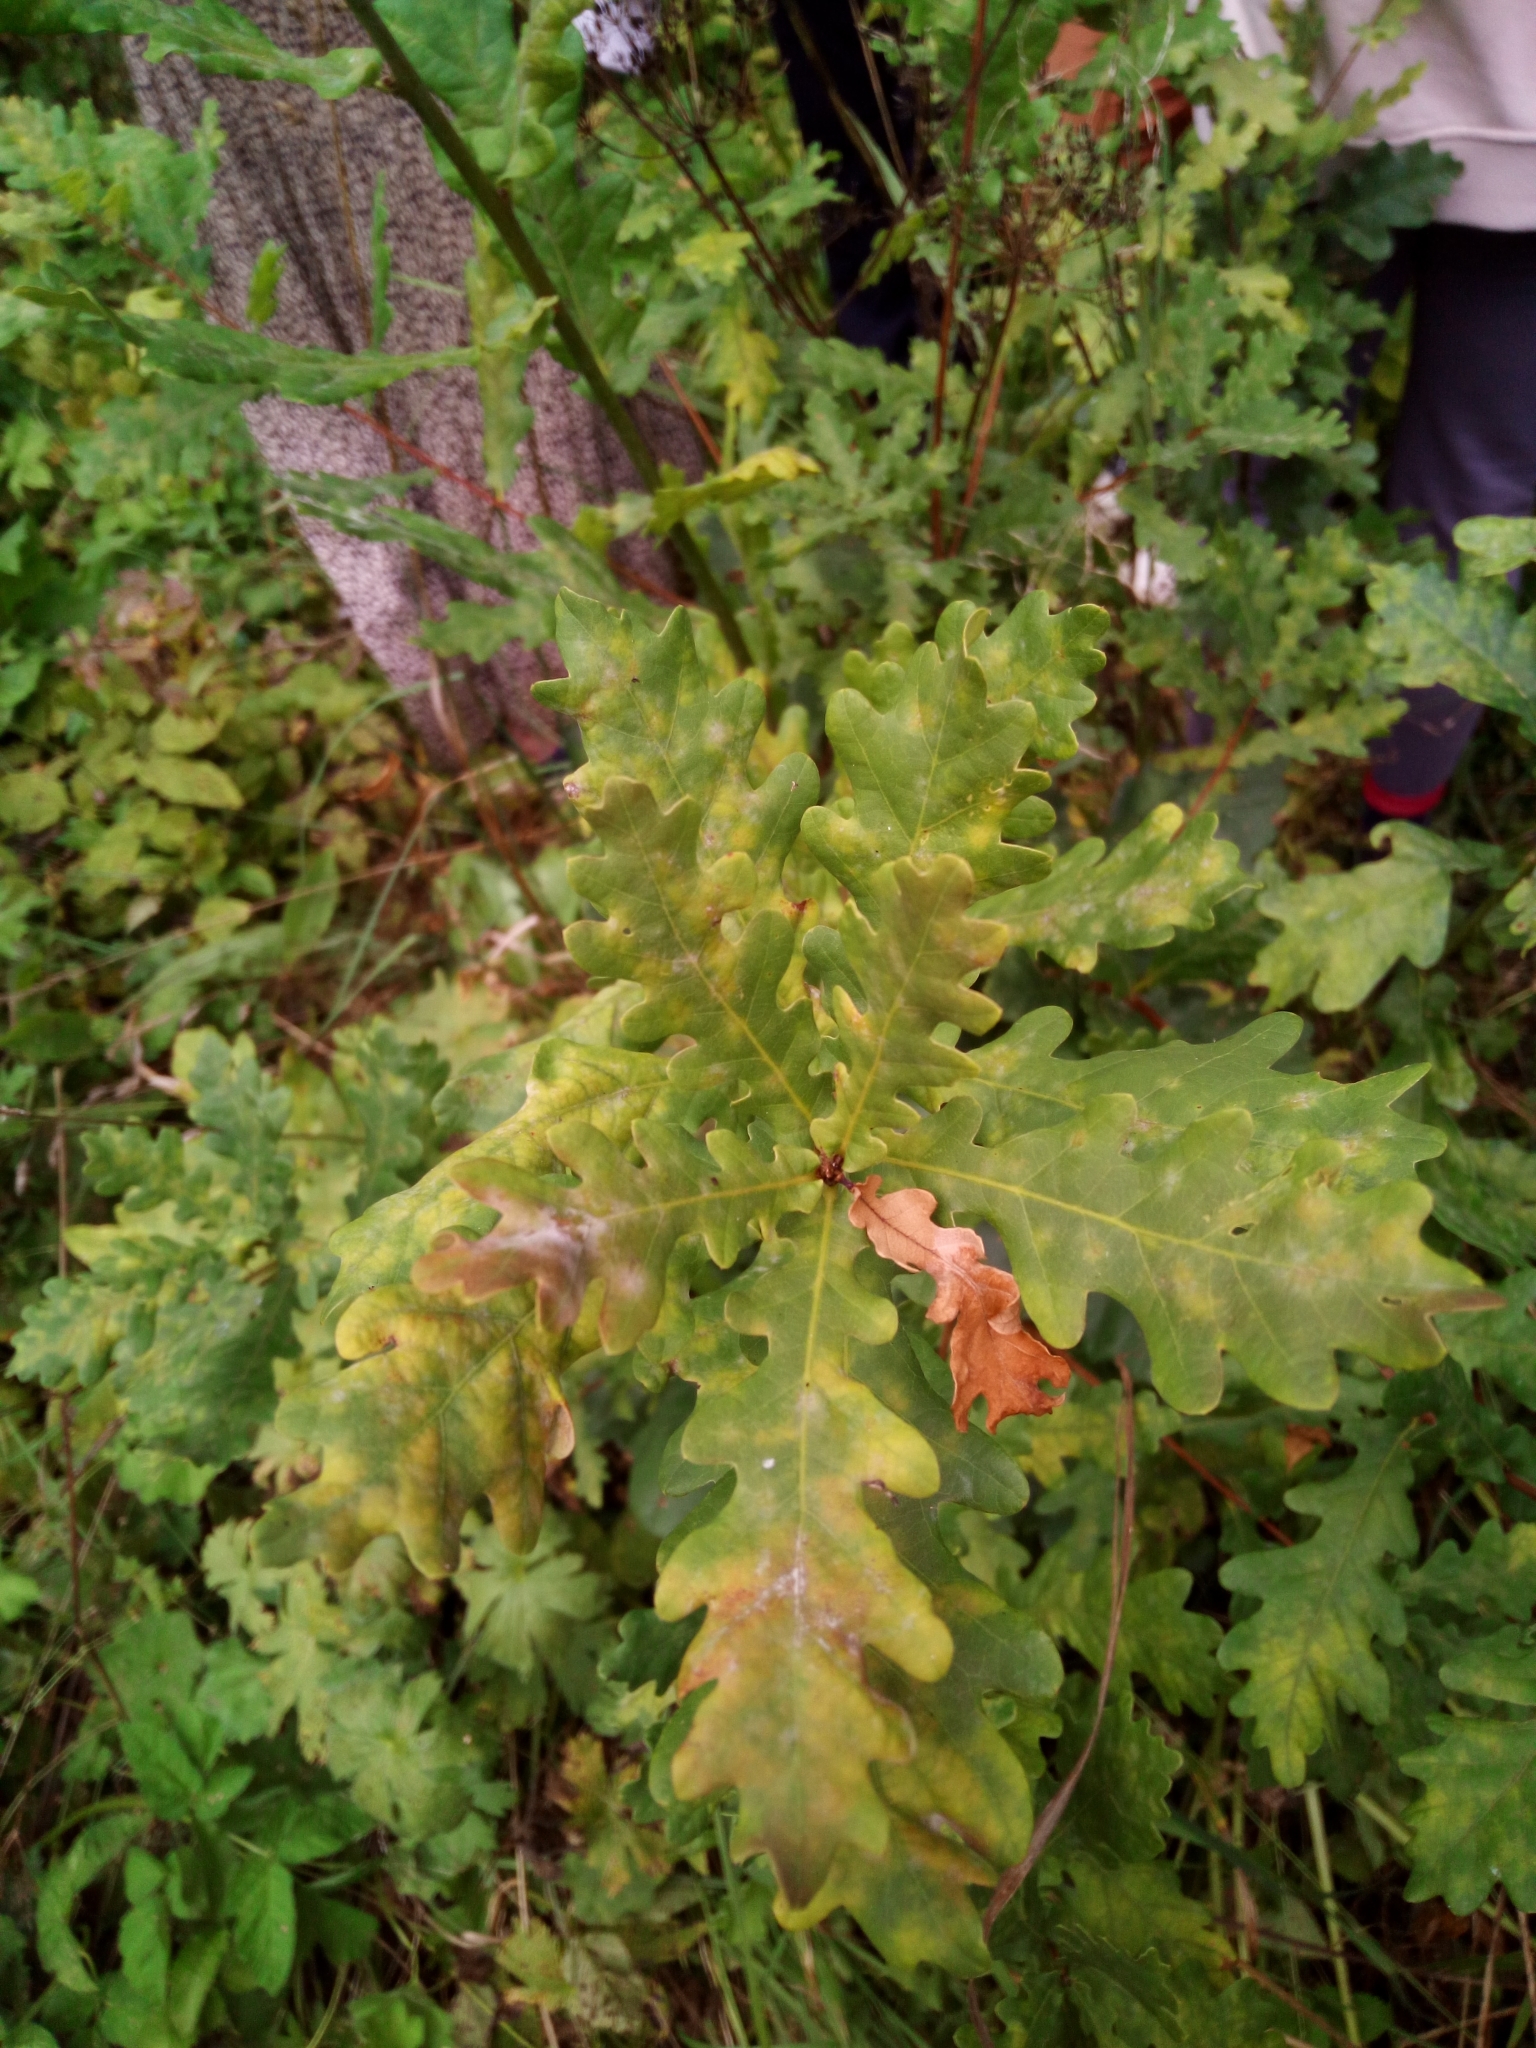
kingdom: Plantae
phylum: Tracheophyta
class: Magnoliopsida
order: Fagales
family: Fagaceae
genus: Quercus
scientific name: Quercus robur
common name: Pedunculate oak
